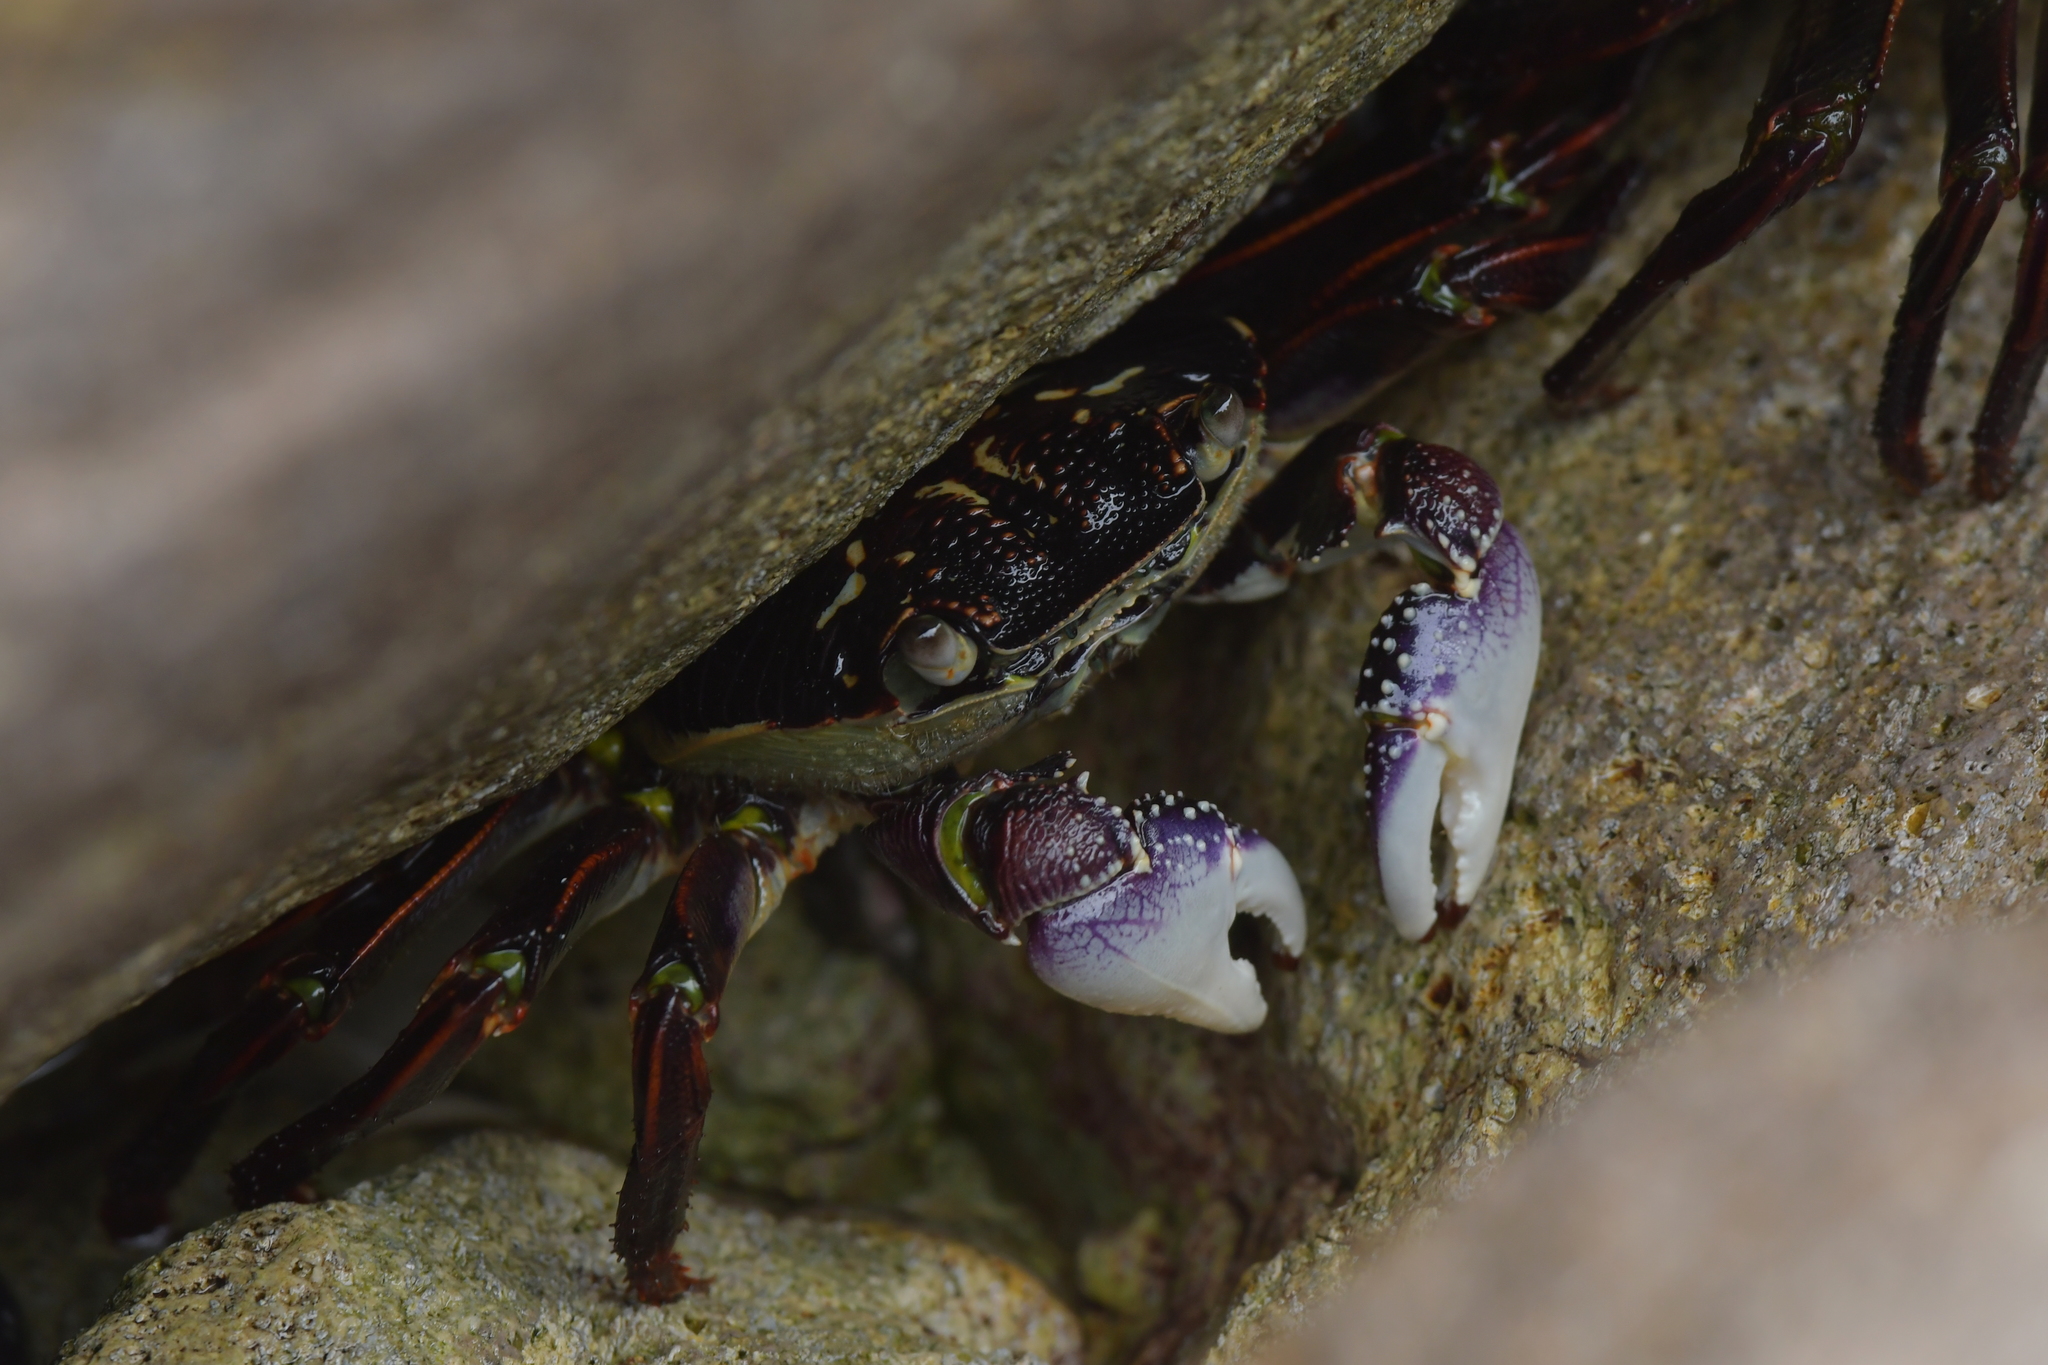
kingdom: Animalia
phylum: Arthropoda
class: Malacostraca
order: Decapoda
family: Grapsidae
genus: Leptograpsus
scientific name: Leptograpsus variegatus
